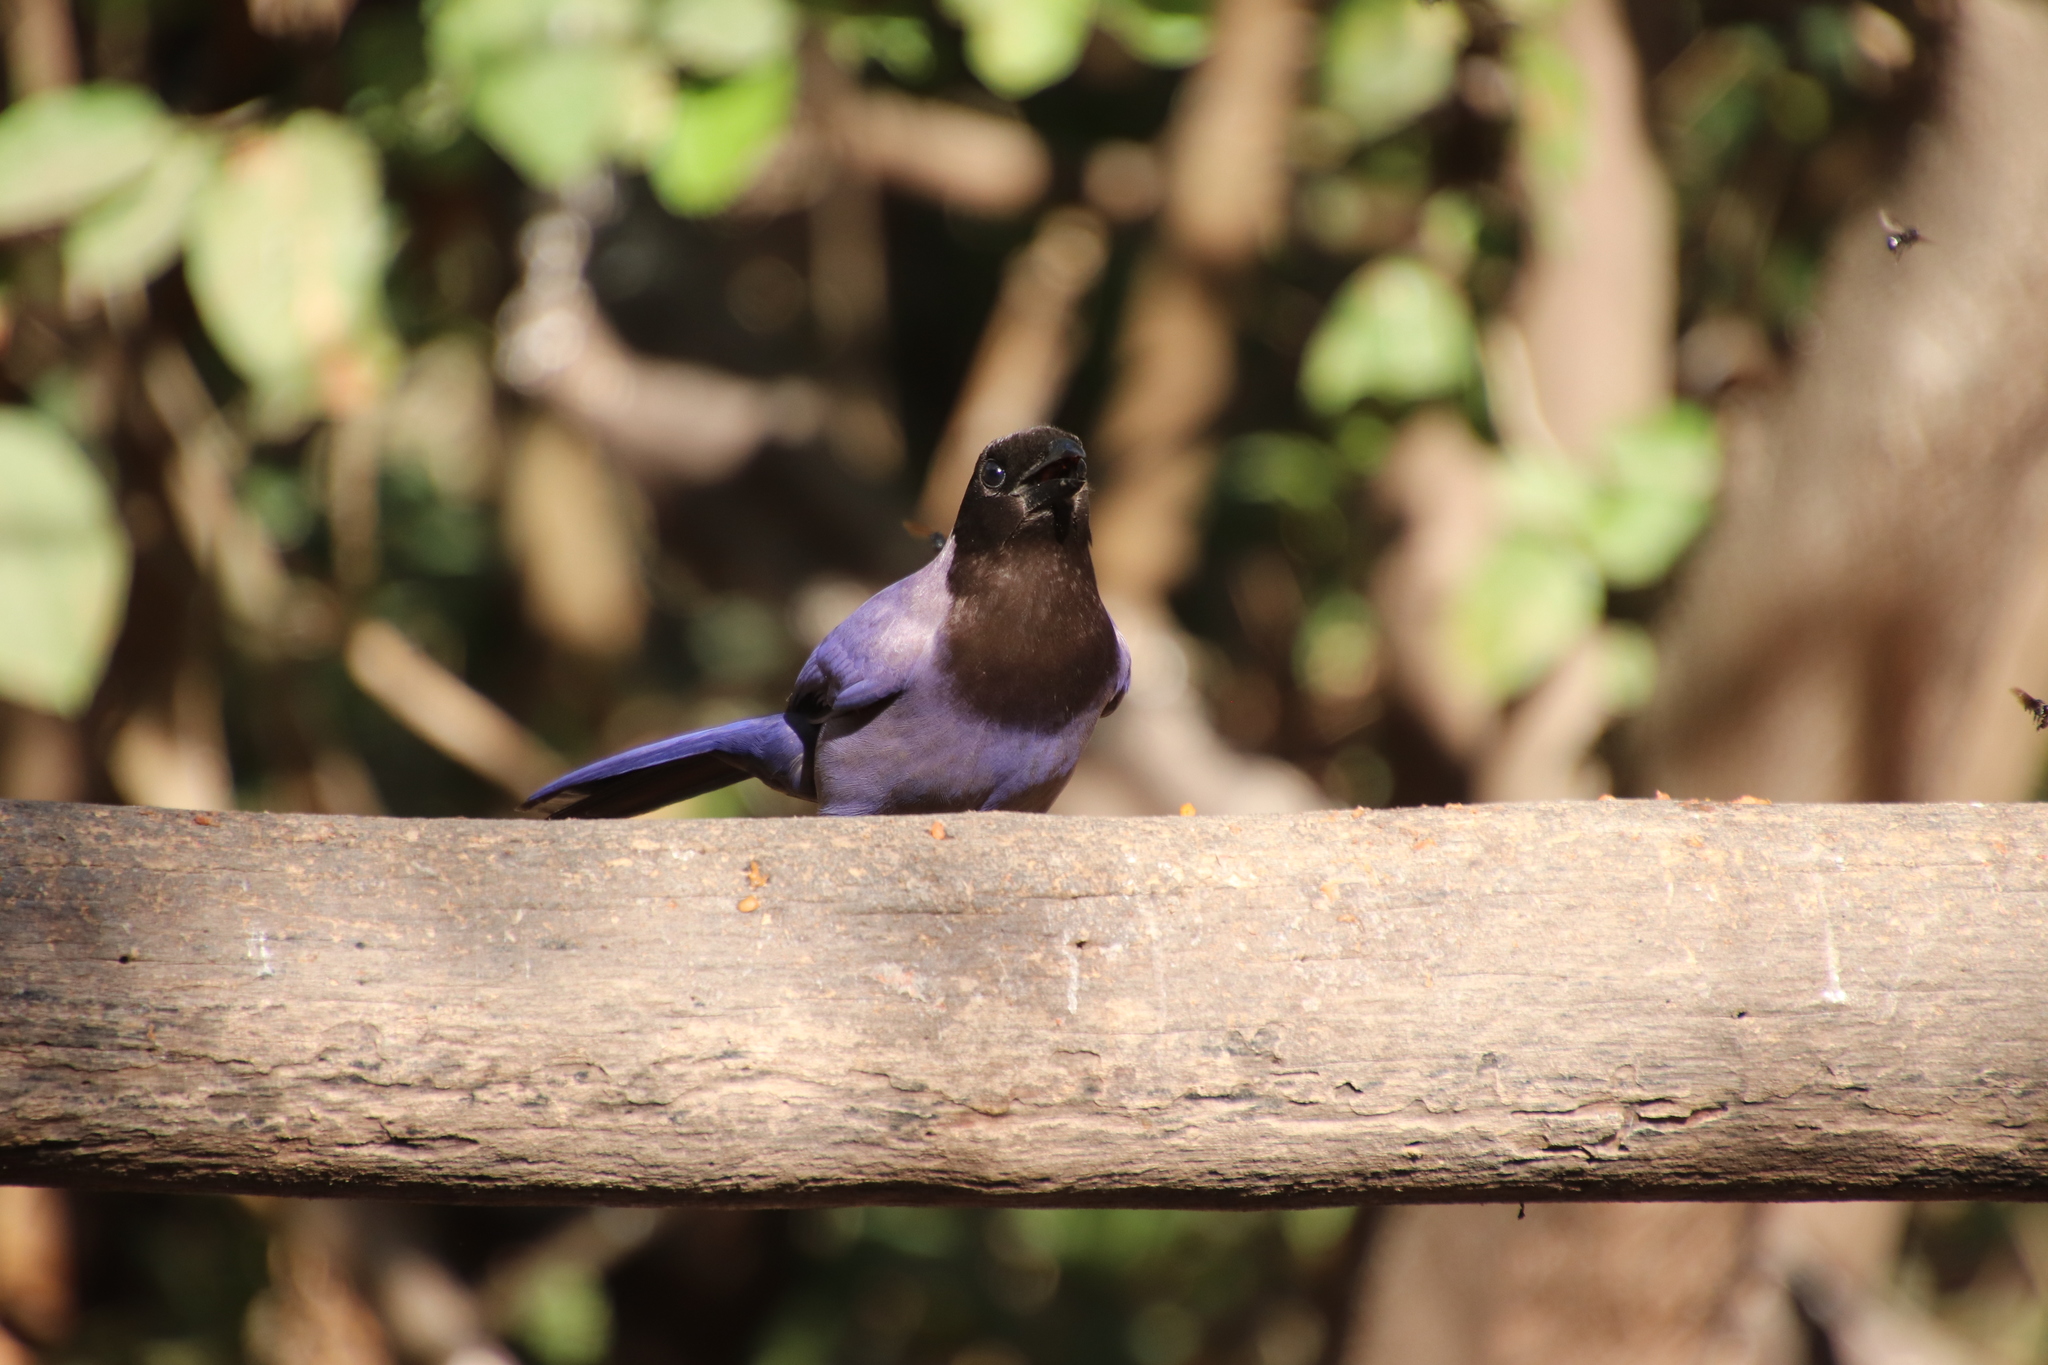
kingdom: Animalia
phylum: Chordata
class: Aves
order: Passeriformes
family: Corvidae
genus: Cyanocorax
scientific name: Cyanocorax cyanomelas
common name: Purplish jay
